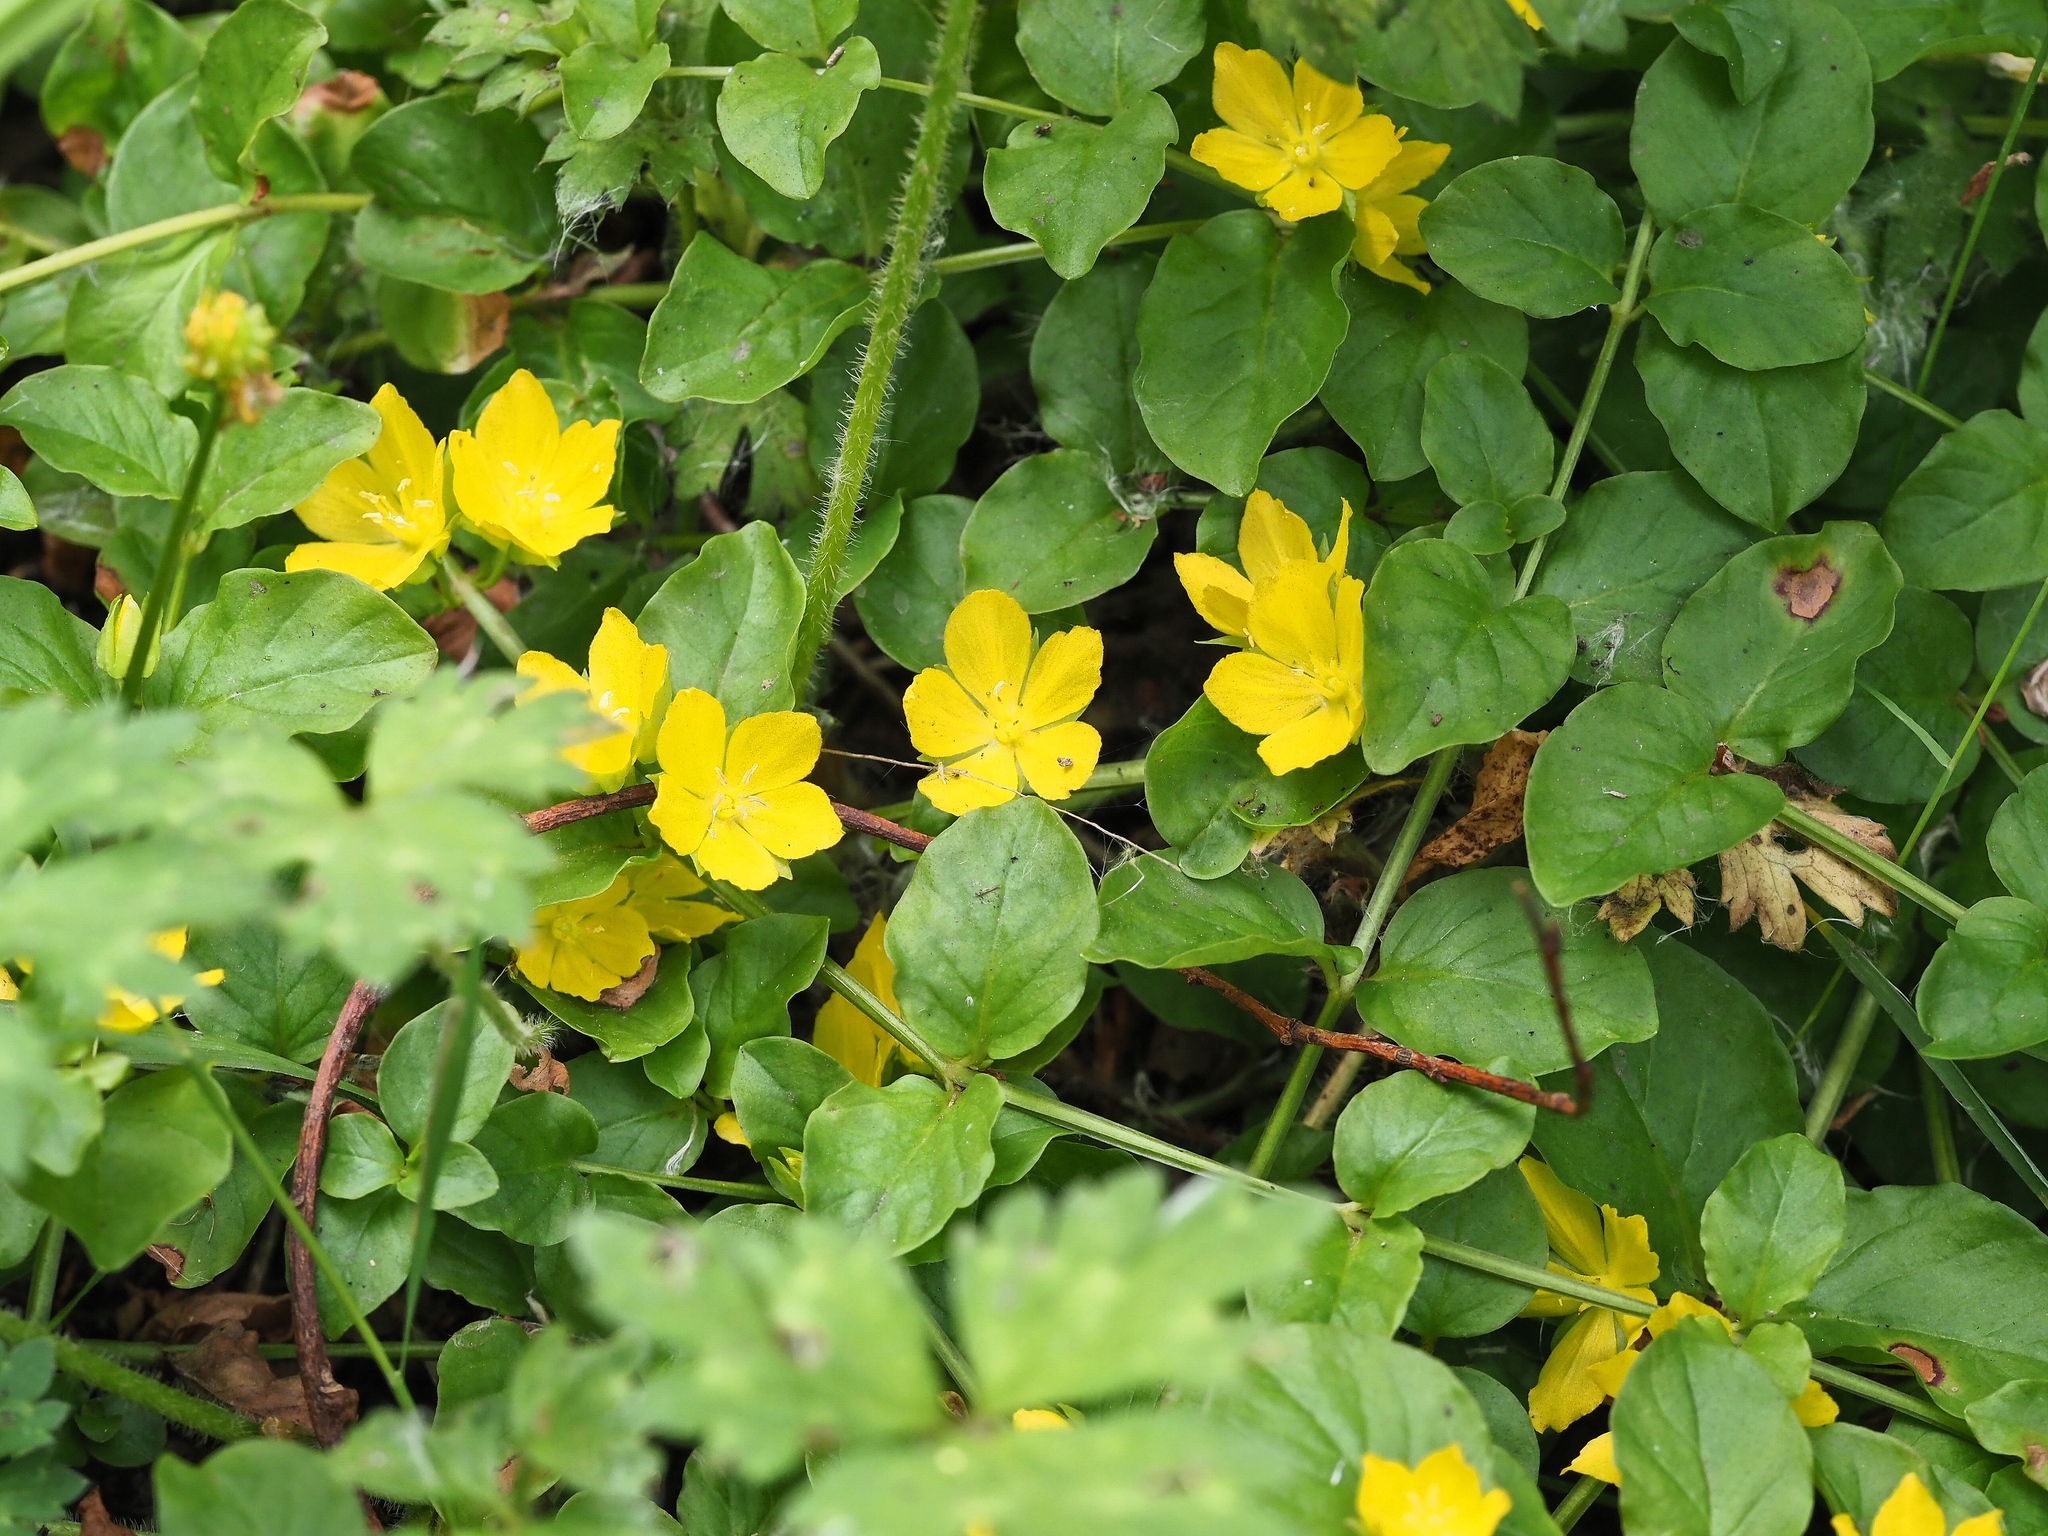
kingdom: Plantae
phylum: Tracheophyta
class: Magnoliopsida
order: Ericales
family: Primulaceae
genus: Lysimachia
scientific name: Lysimachia nummularia
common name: Moneywort
